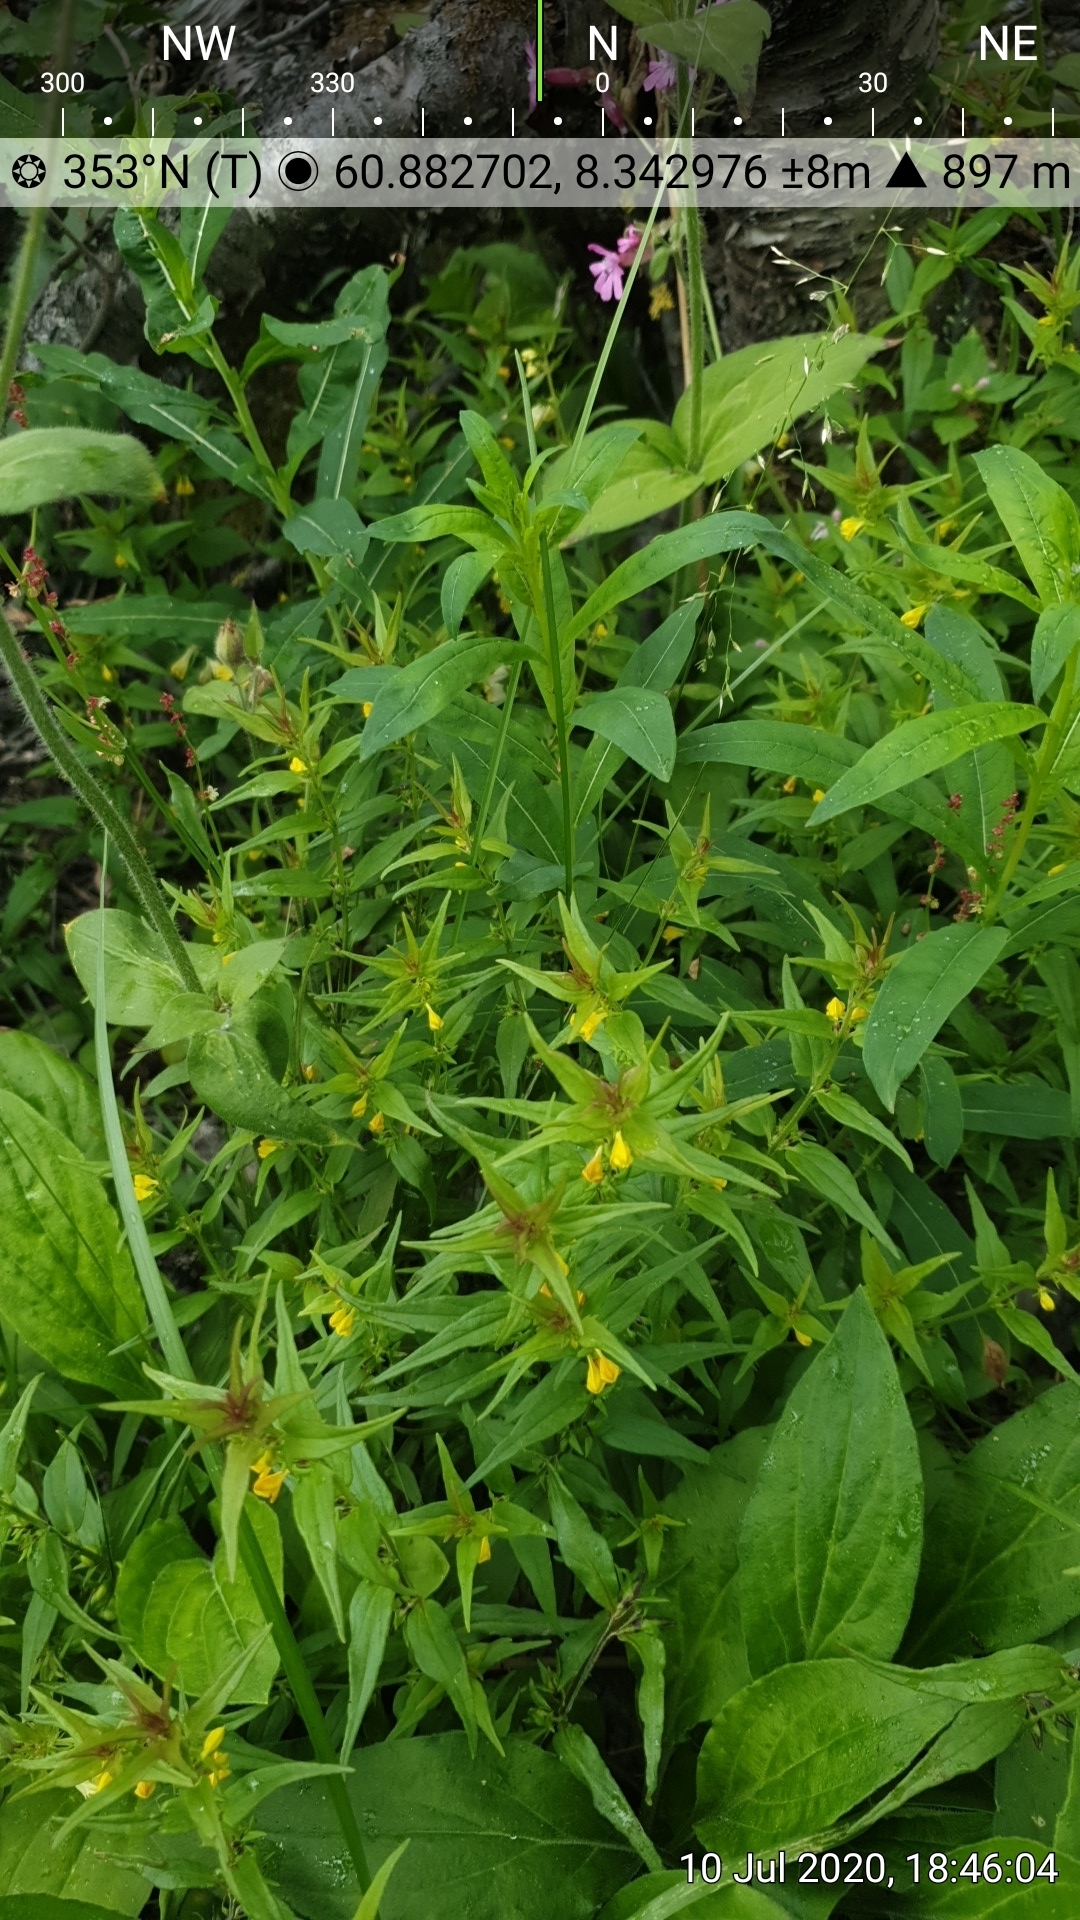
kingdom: Plantae
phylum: Tracheophyta
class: Magnoliopsida
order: Lamiales
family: Orobanchaceae
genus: Melampyrum
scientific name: Melampyrum sylvaticum
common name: Small cow-wheat
